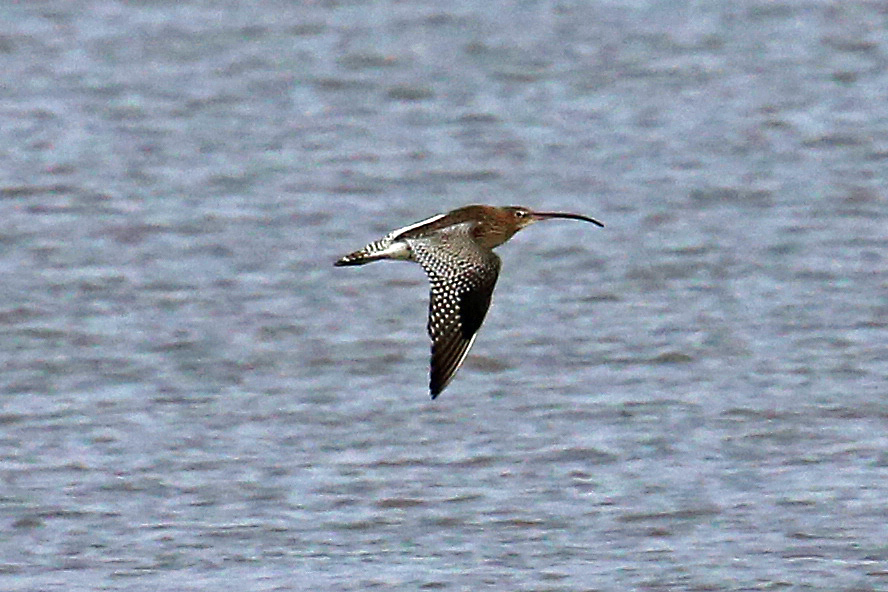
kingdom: Animalia
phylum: Chordata
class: Aves
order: Charadriiformes
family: Scolopacidae
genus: Numenius
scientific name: Numenius arquata
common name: Eurasian curlew
